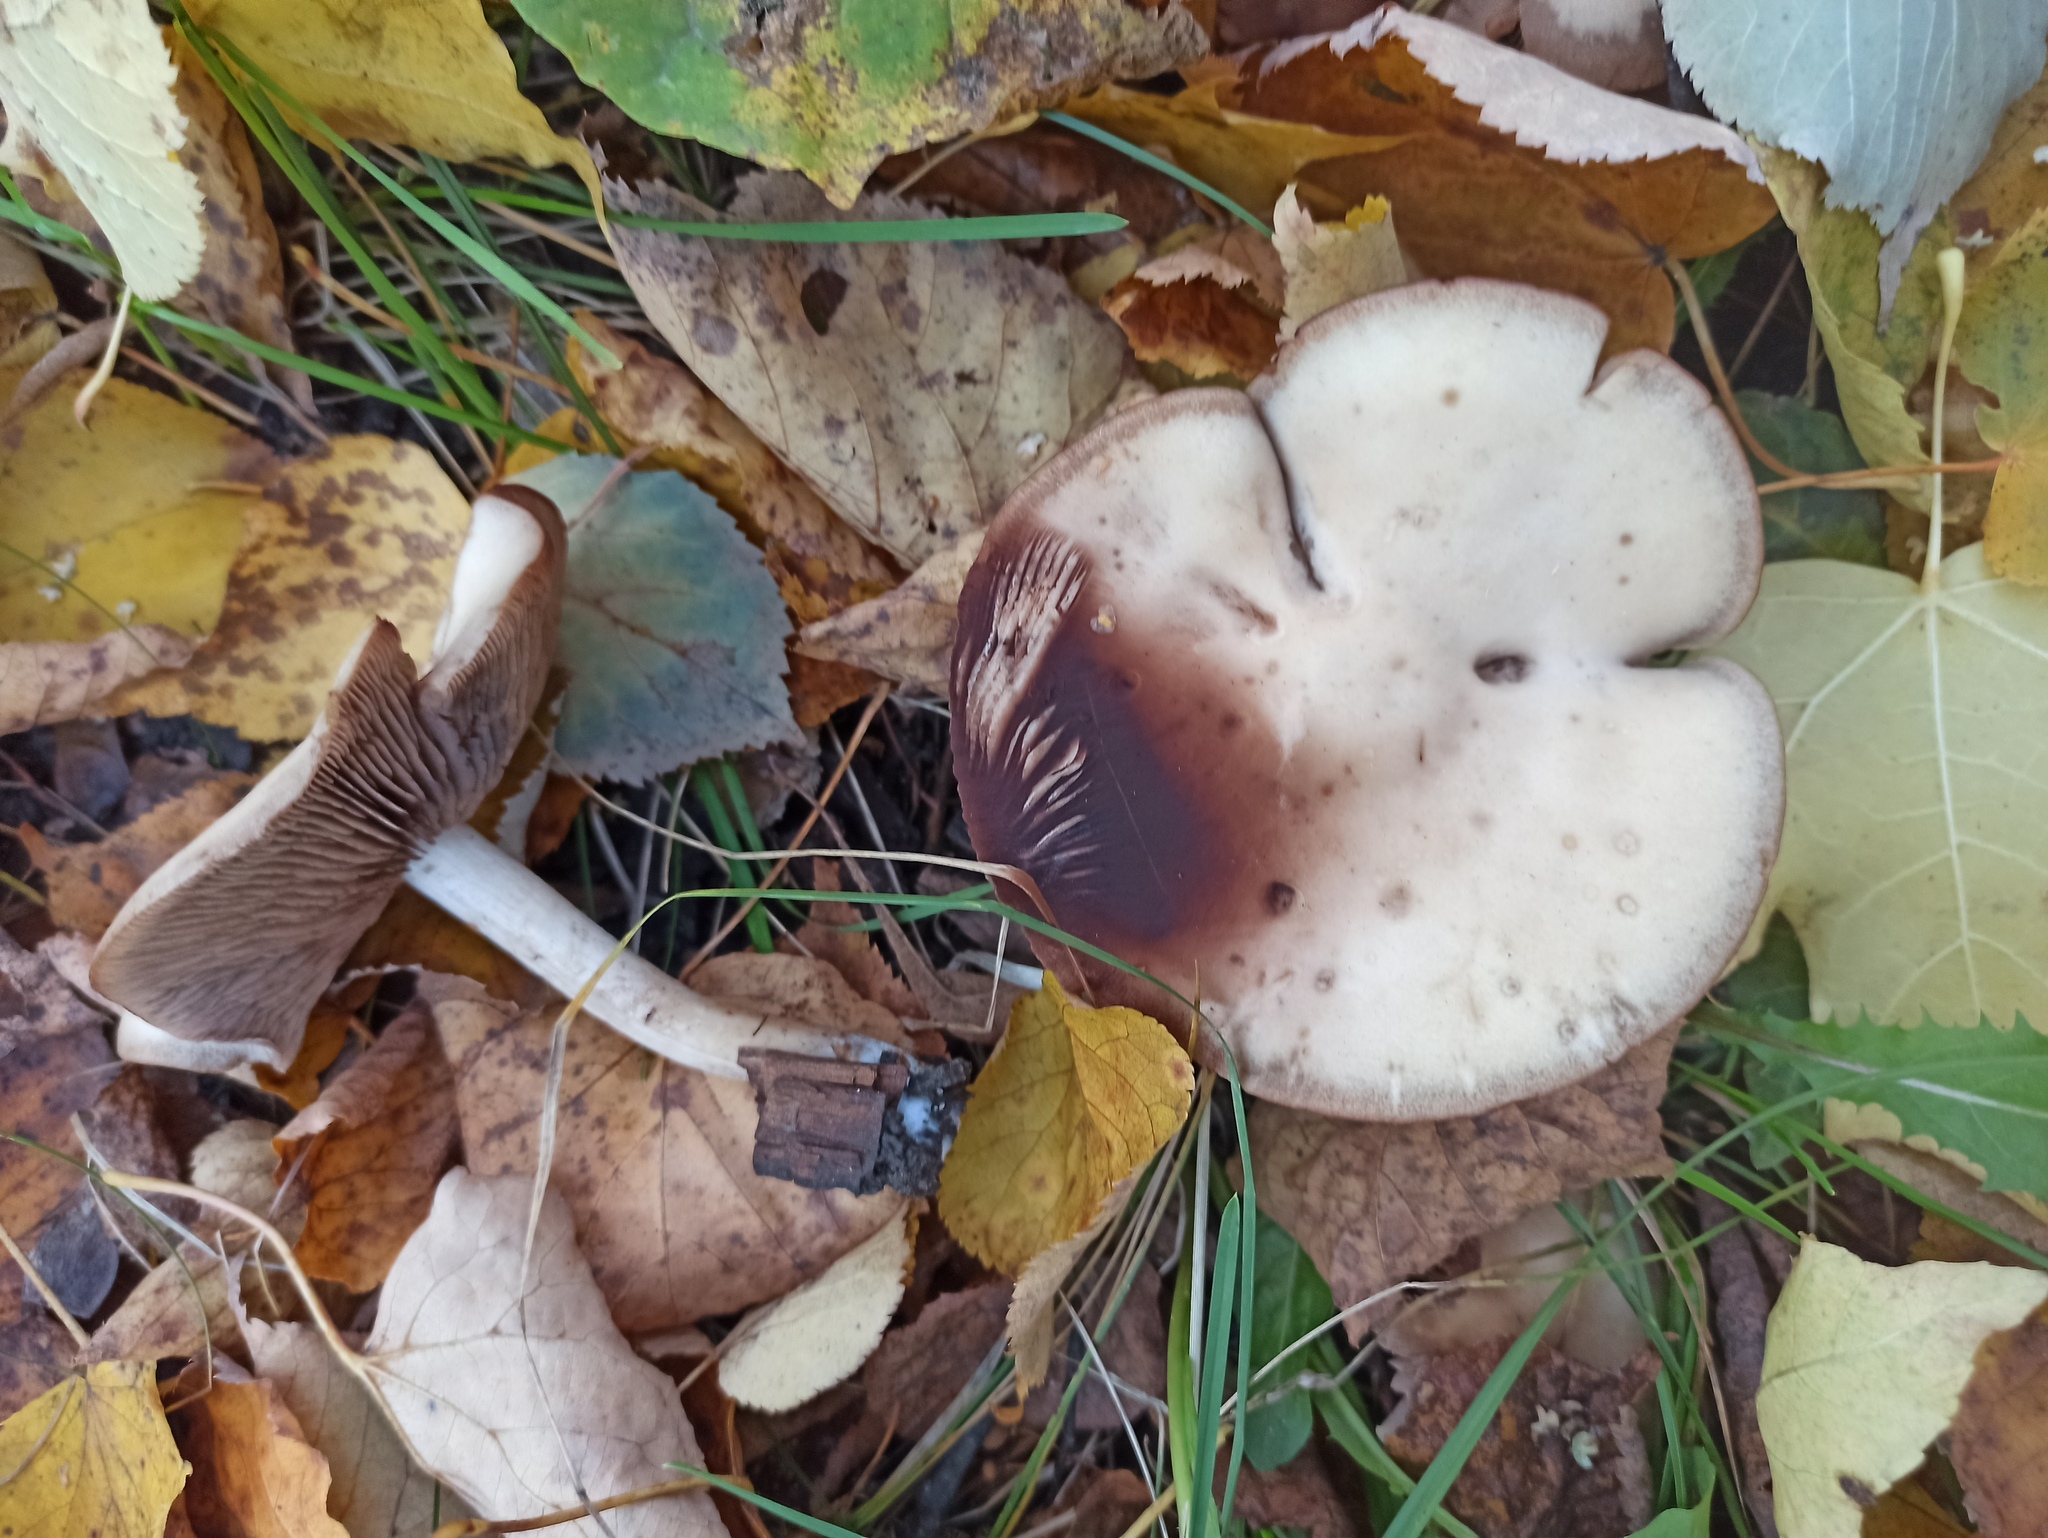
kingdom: Fungi
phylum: Basidiomycota
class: Agaricomycetes
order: Agaricales
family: Tricholomataceae
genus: Collybia
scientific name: Collybia
